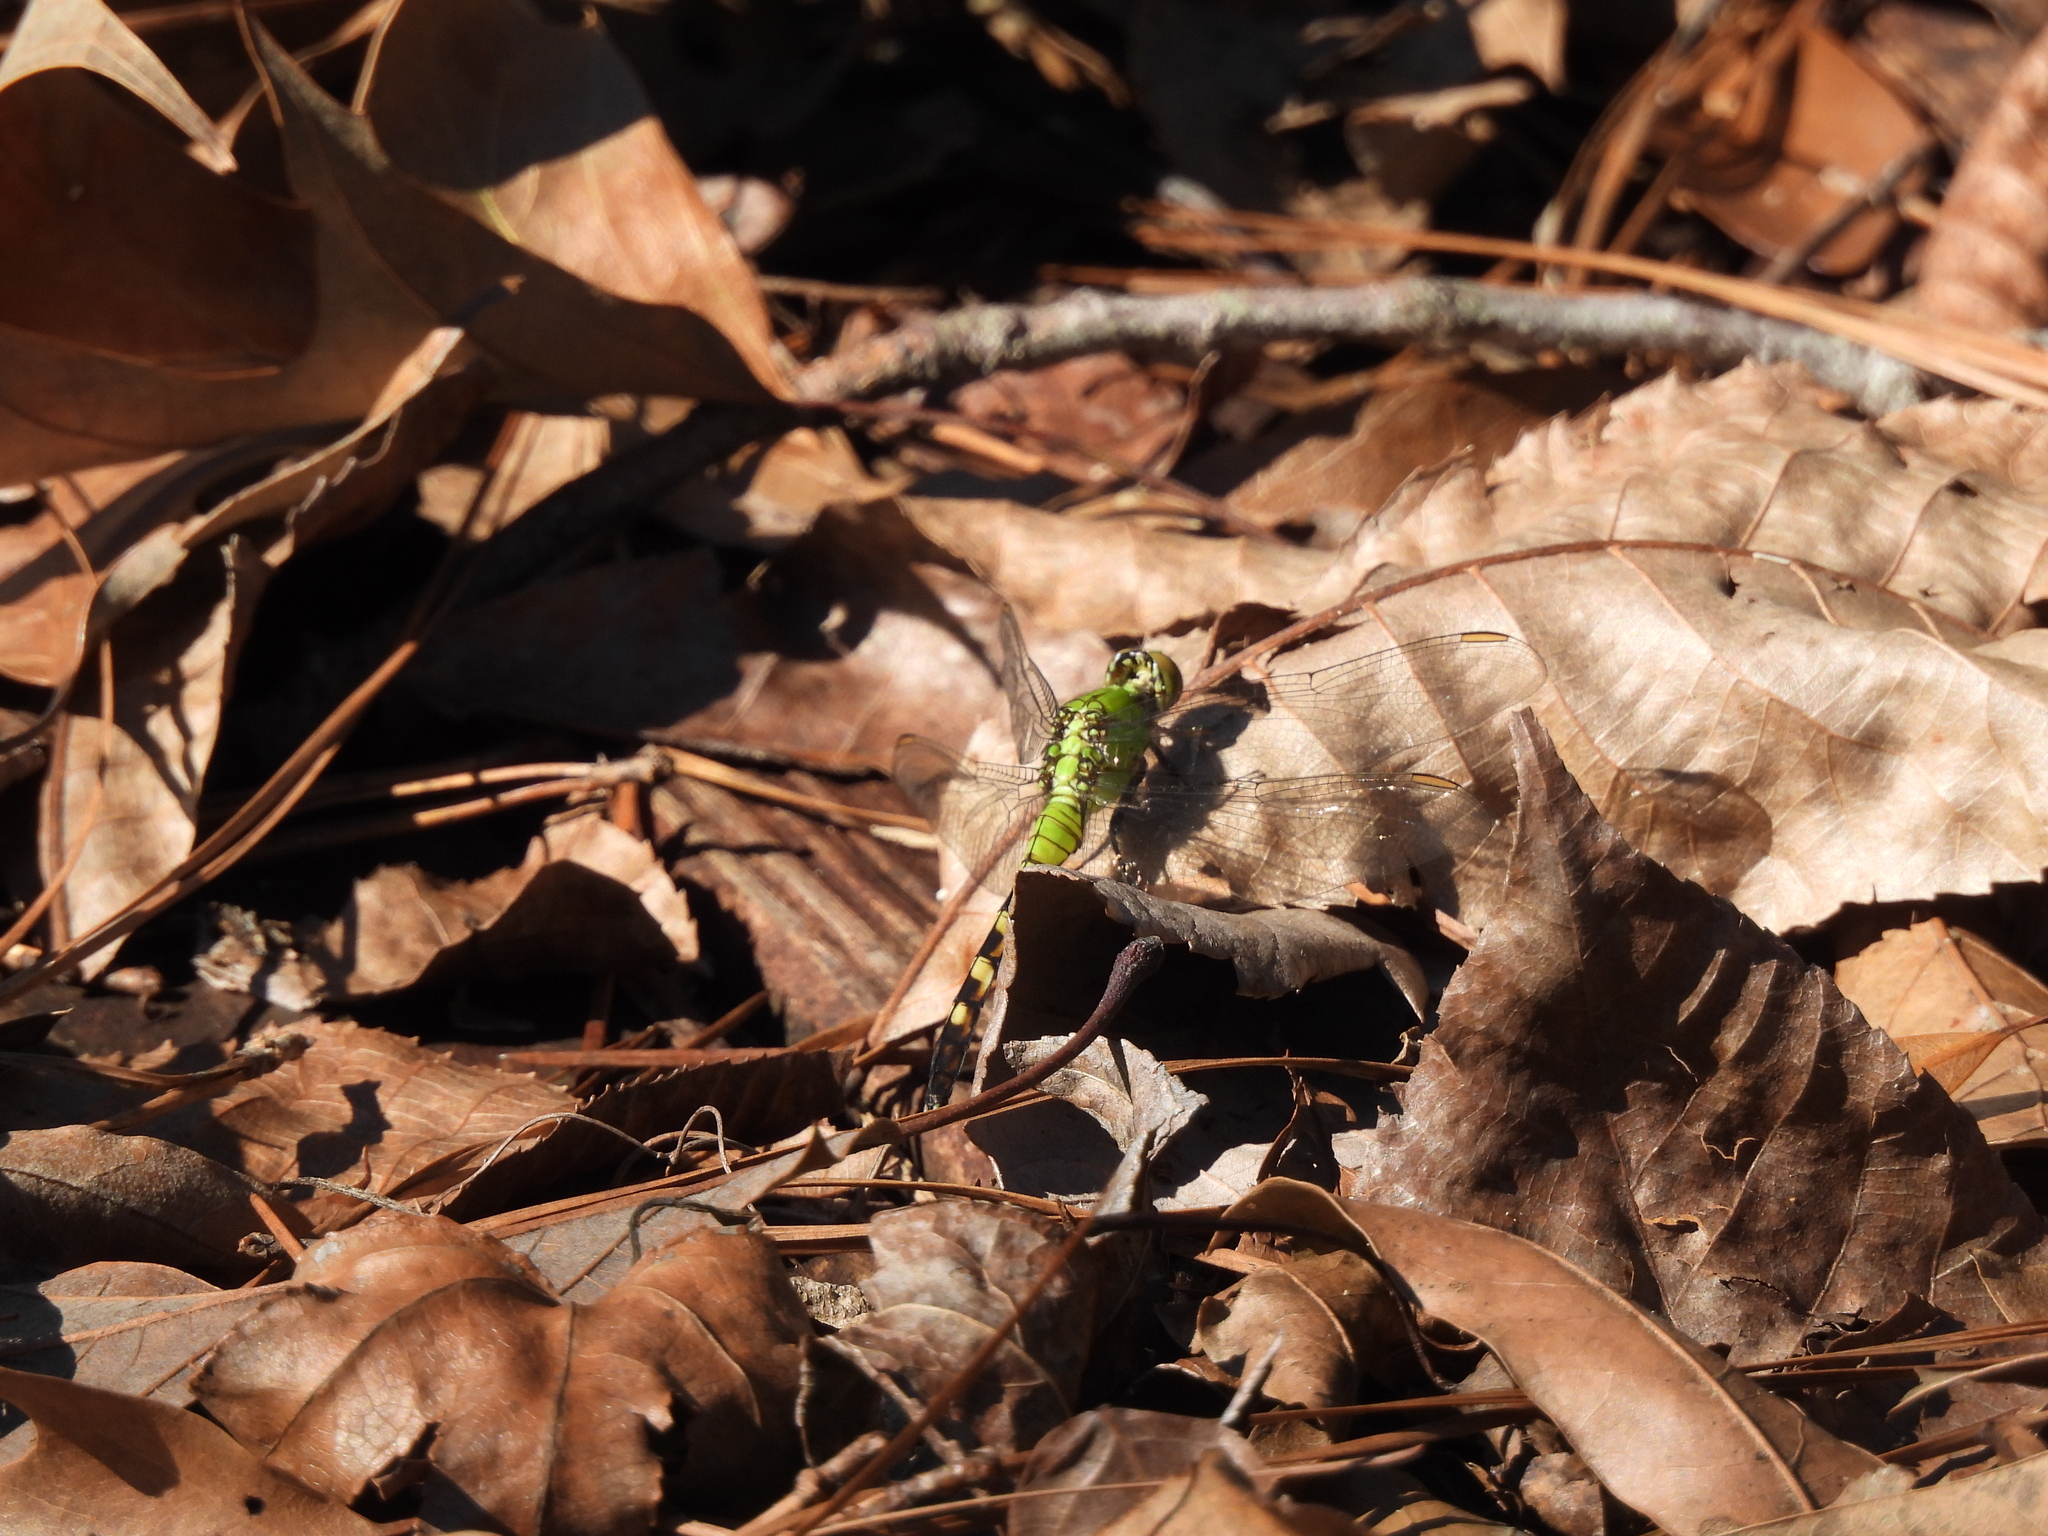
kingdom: Animalia
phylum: Arthropoda
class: Insecta
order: Odonata
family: Libellulidae
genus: Erythemis
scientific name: Erythemis simplicicollis
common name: Eastern pondhawk
